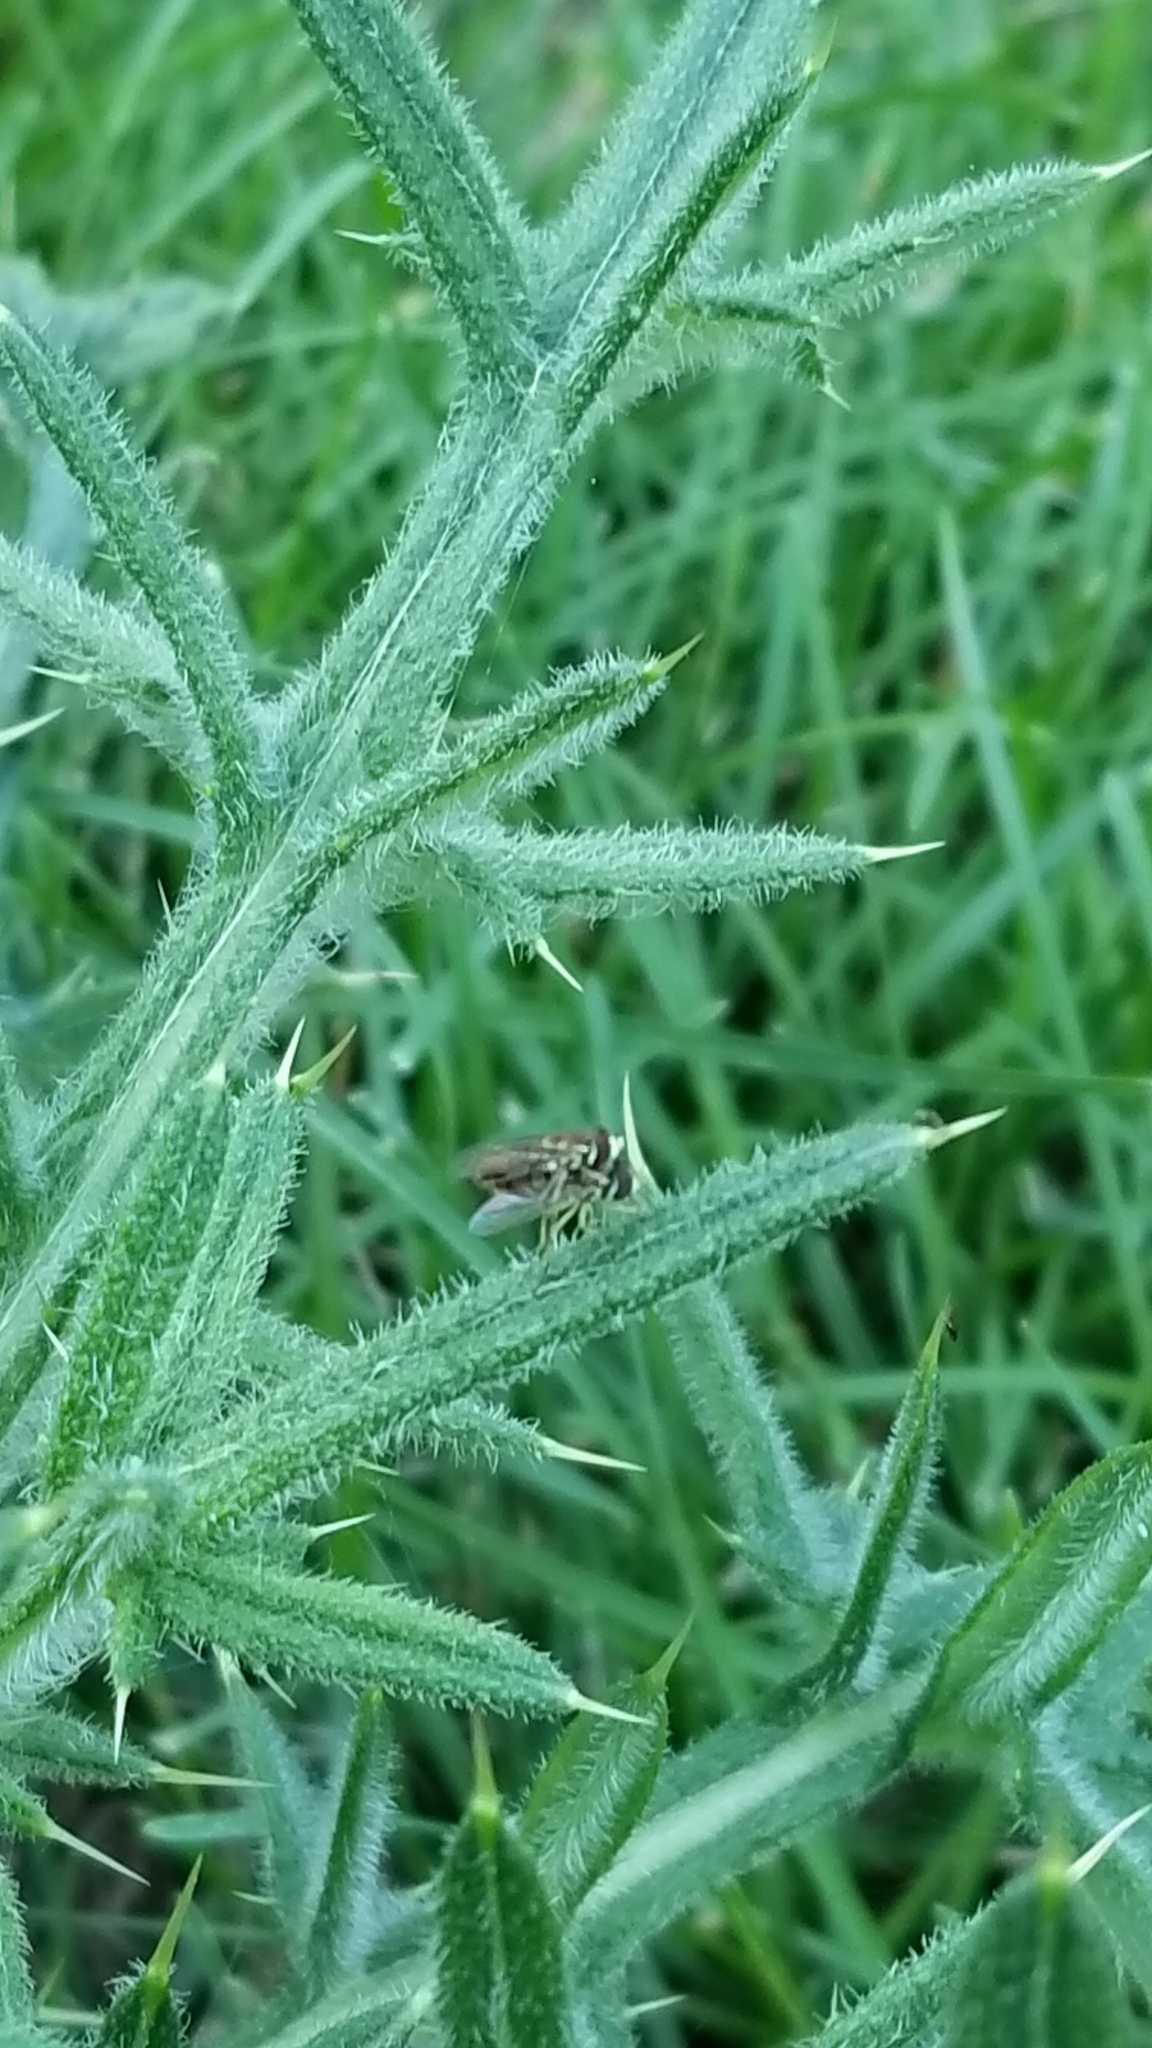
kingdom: Animalia
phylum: Arthropoda
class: Insecta
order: Diptera
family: Syrphidae
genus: Toxomerus
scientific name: Toxomerus
